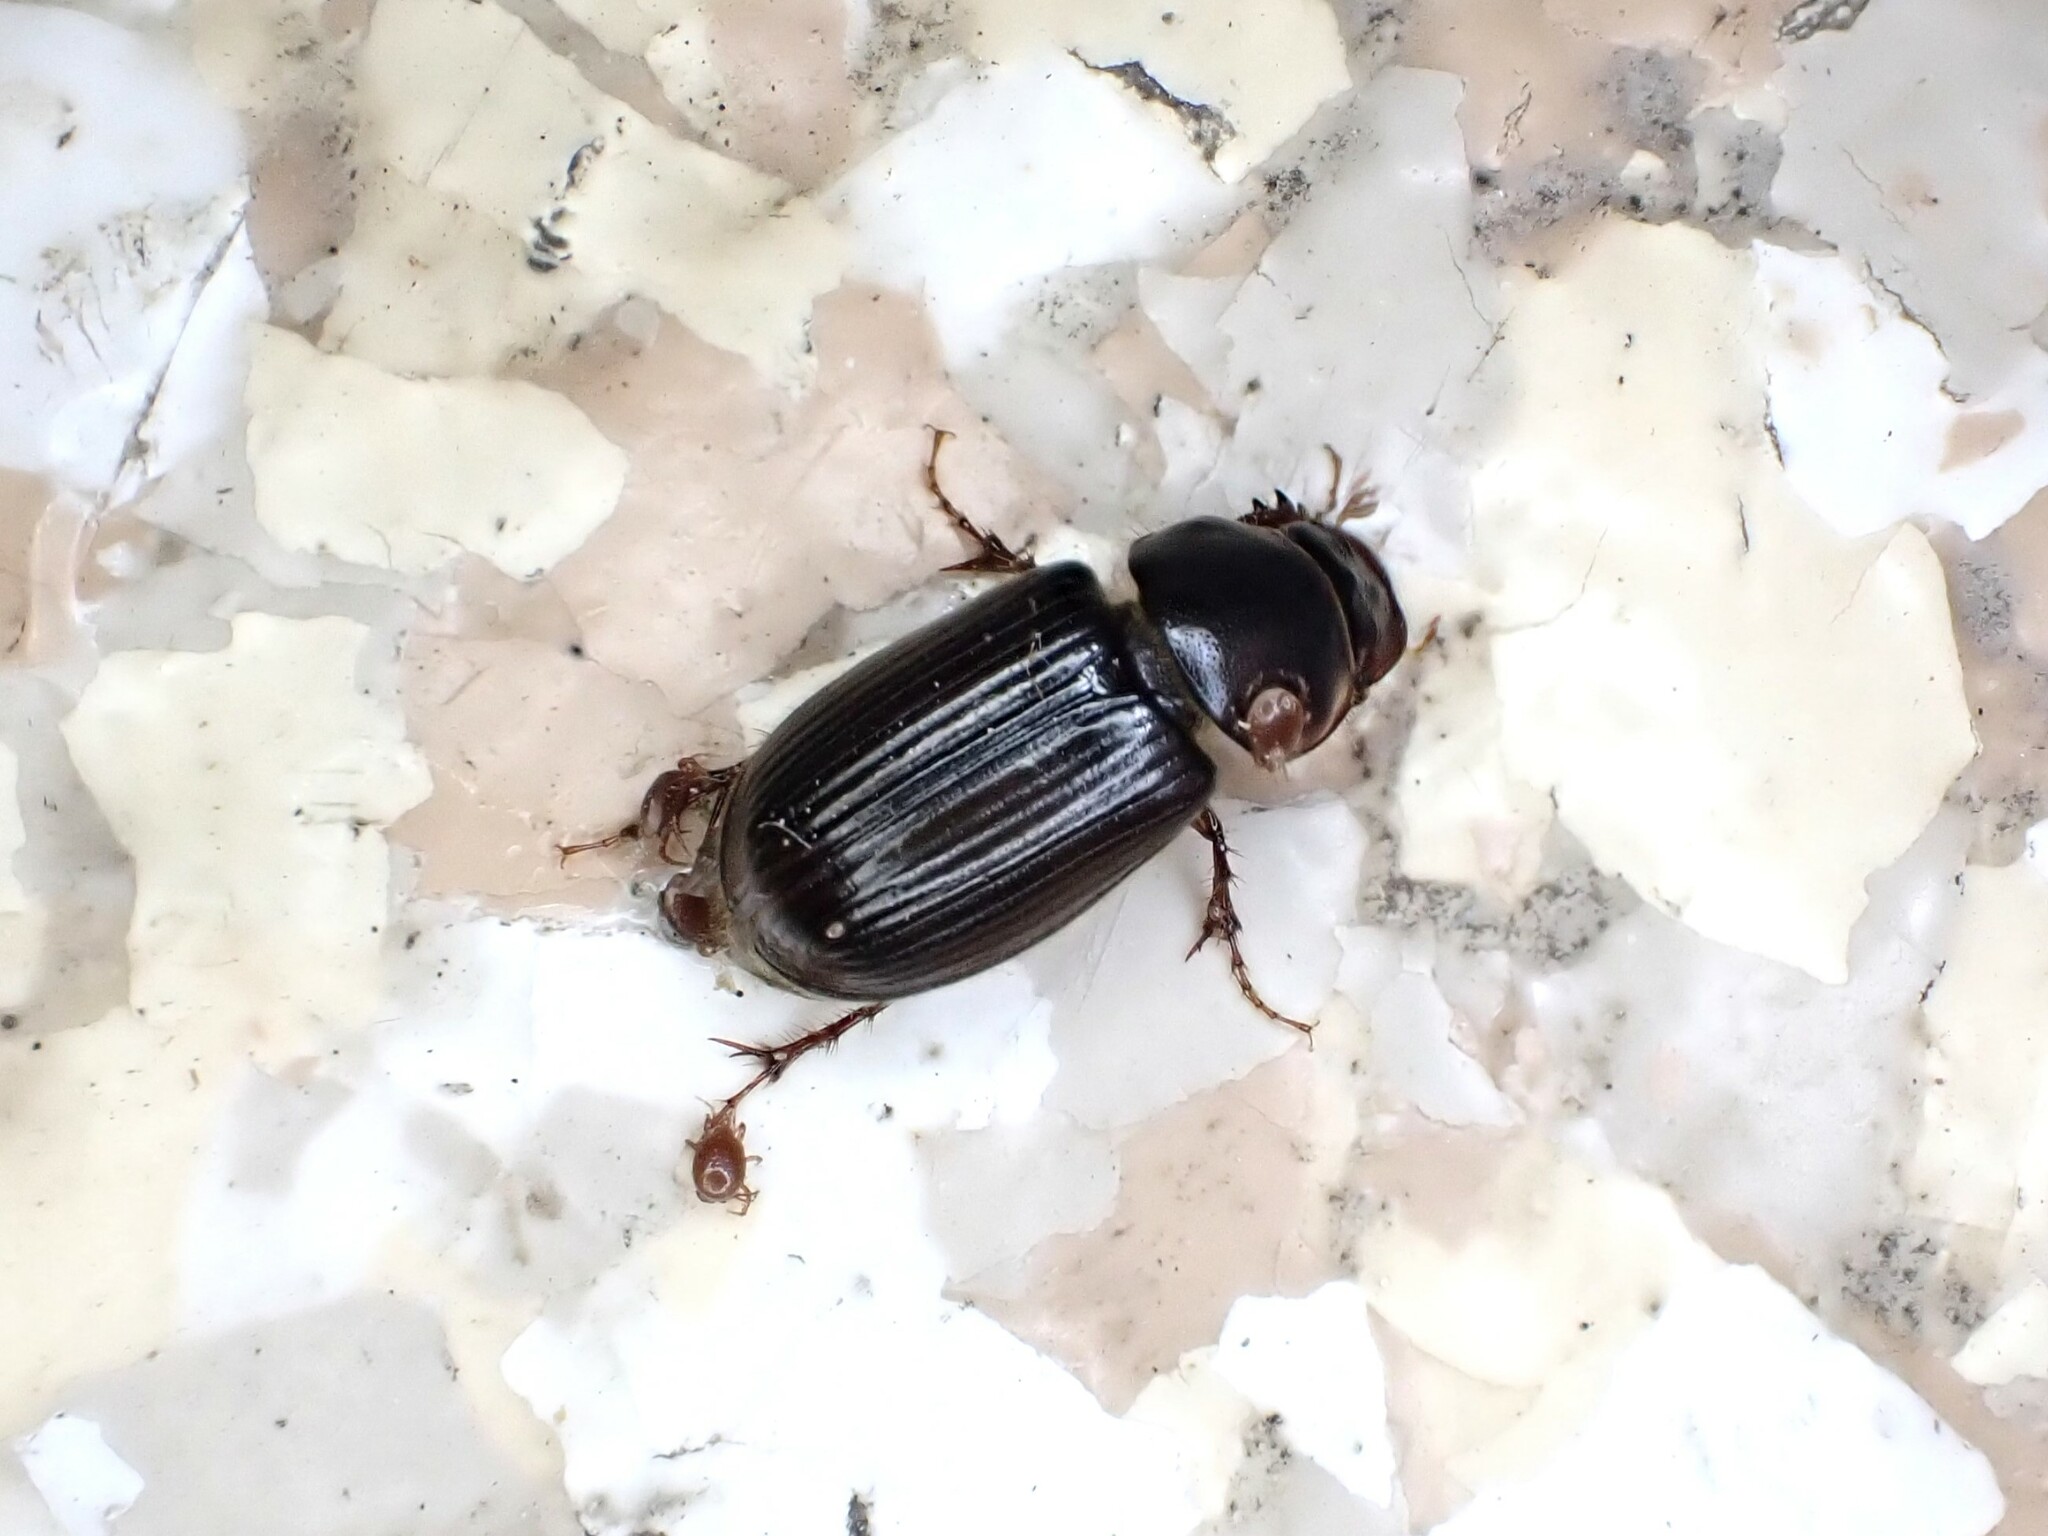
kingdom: Animalia
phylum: Arthropoda
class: Insecta
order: Coleoptera
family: Scarabaeidae
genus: Acrossidius
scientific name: Acrossidius tasmaniae
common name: Black-headed pasture cockchafer
